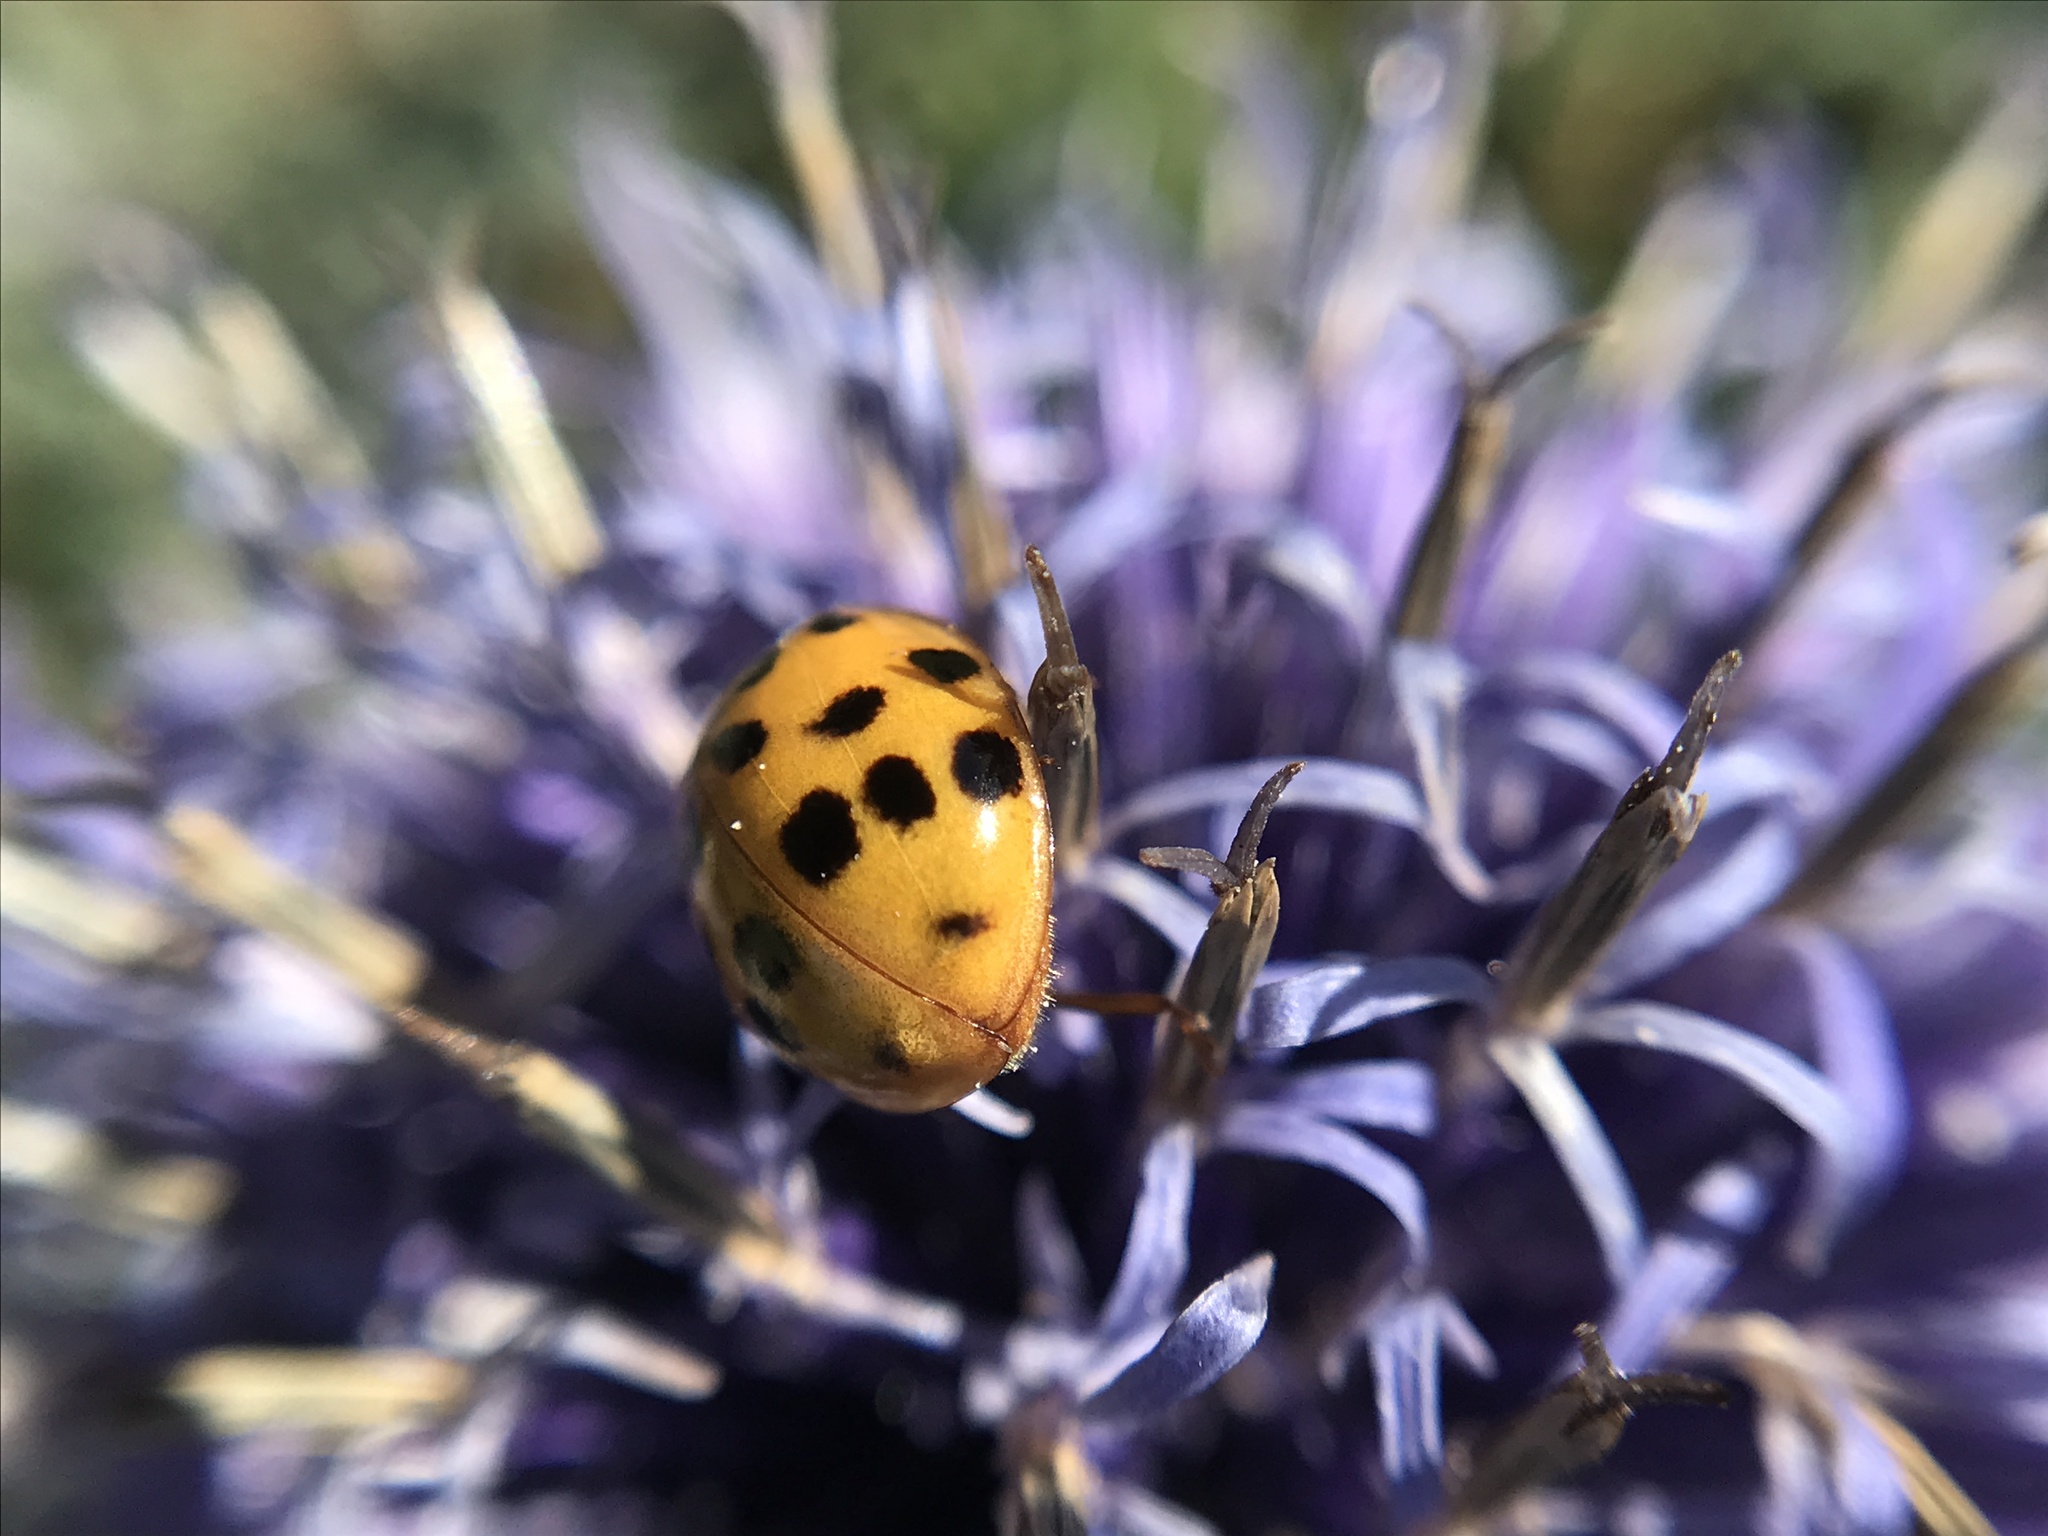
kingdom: Animalia
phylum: Arthropoda
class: Insecta
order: Coleoptera
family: Coccinellidae
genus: Harmonia
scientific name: Harmonia axyridis
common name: Harlequin ladybird
